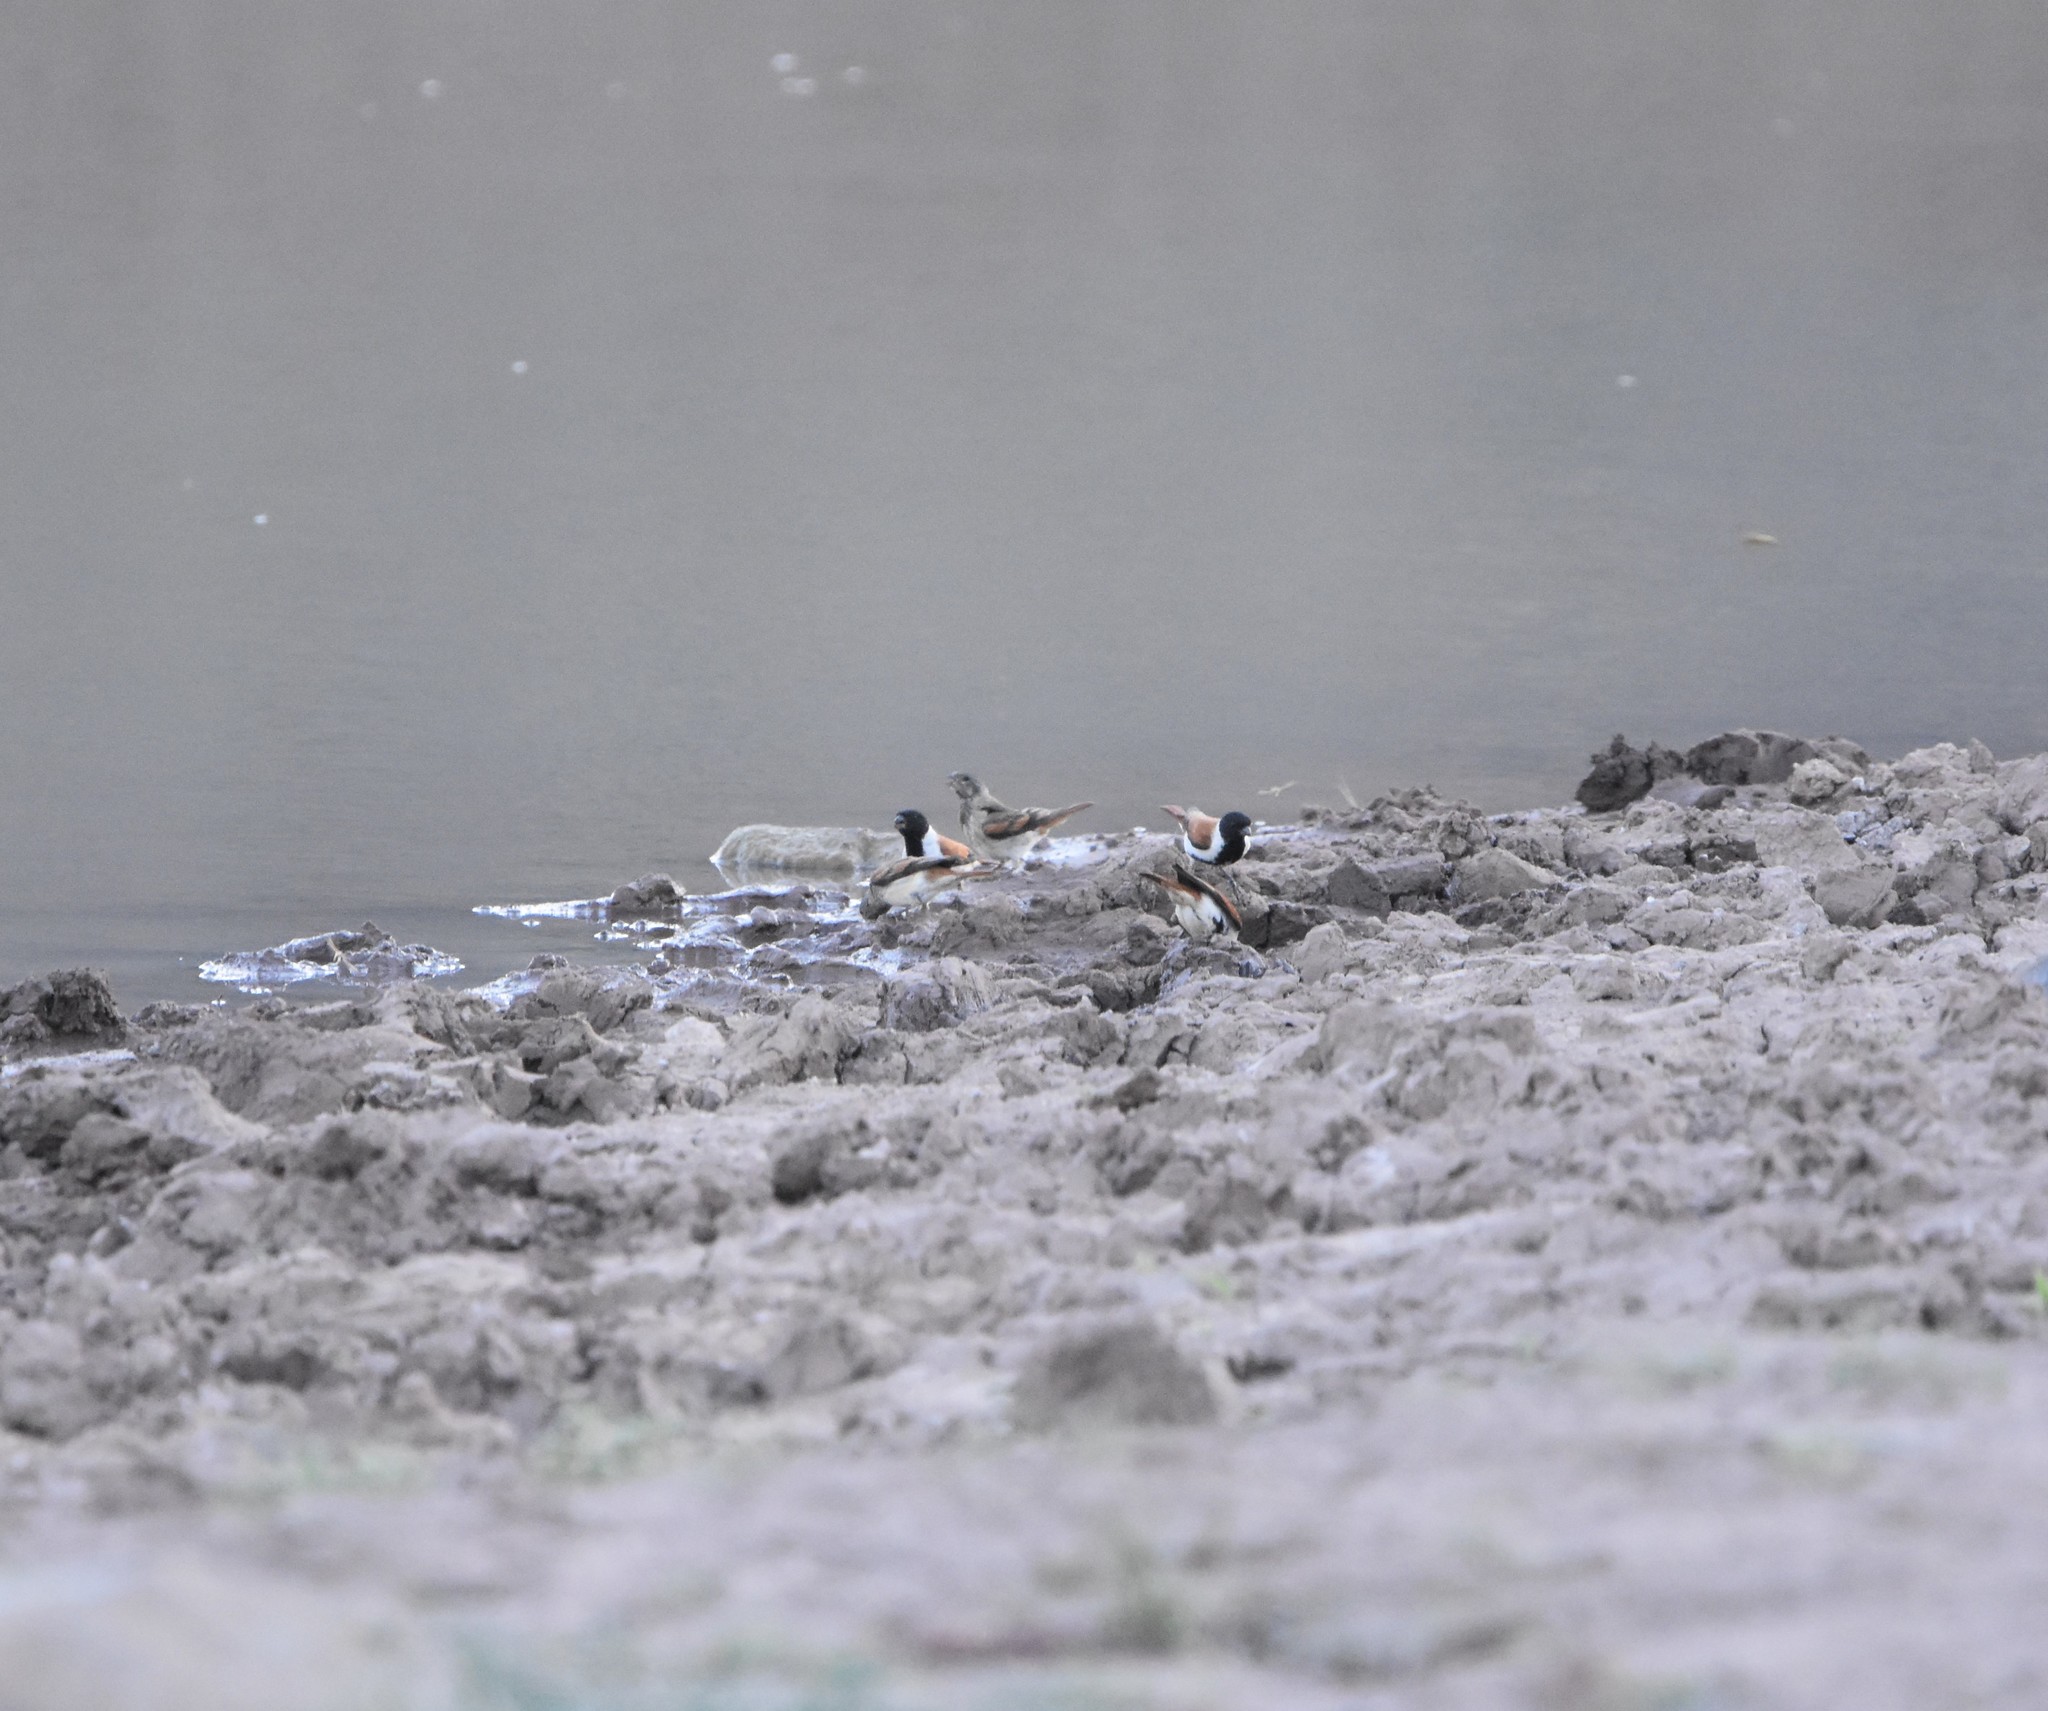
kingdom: Animalia
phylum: Chordata
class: Aves
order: Passeriformes
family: Fringillidae
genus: Serinus
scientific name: Serinus alario
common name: Black-headed canary
